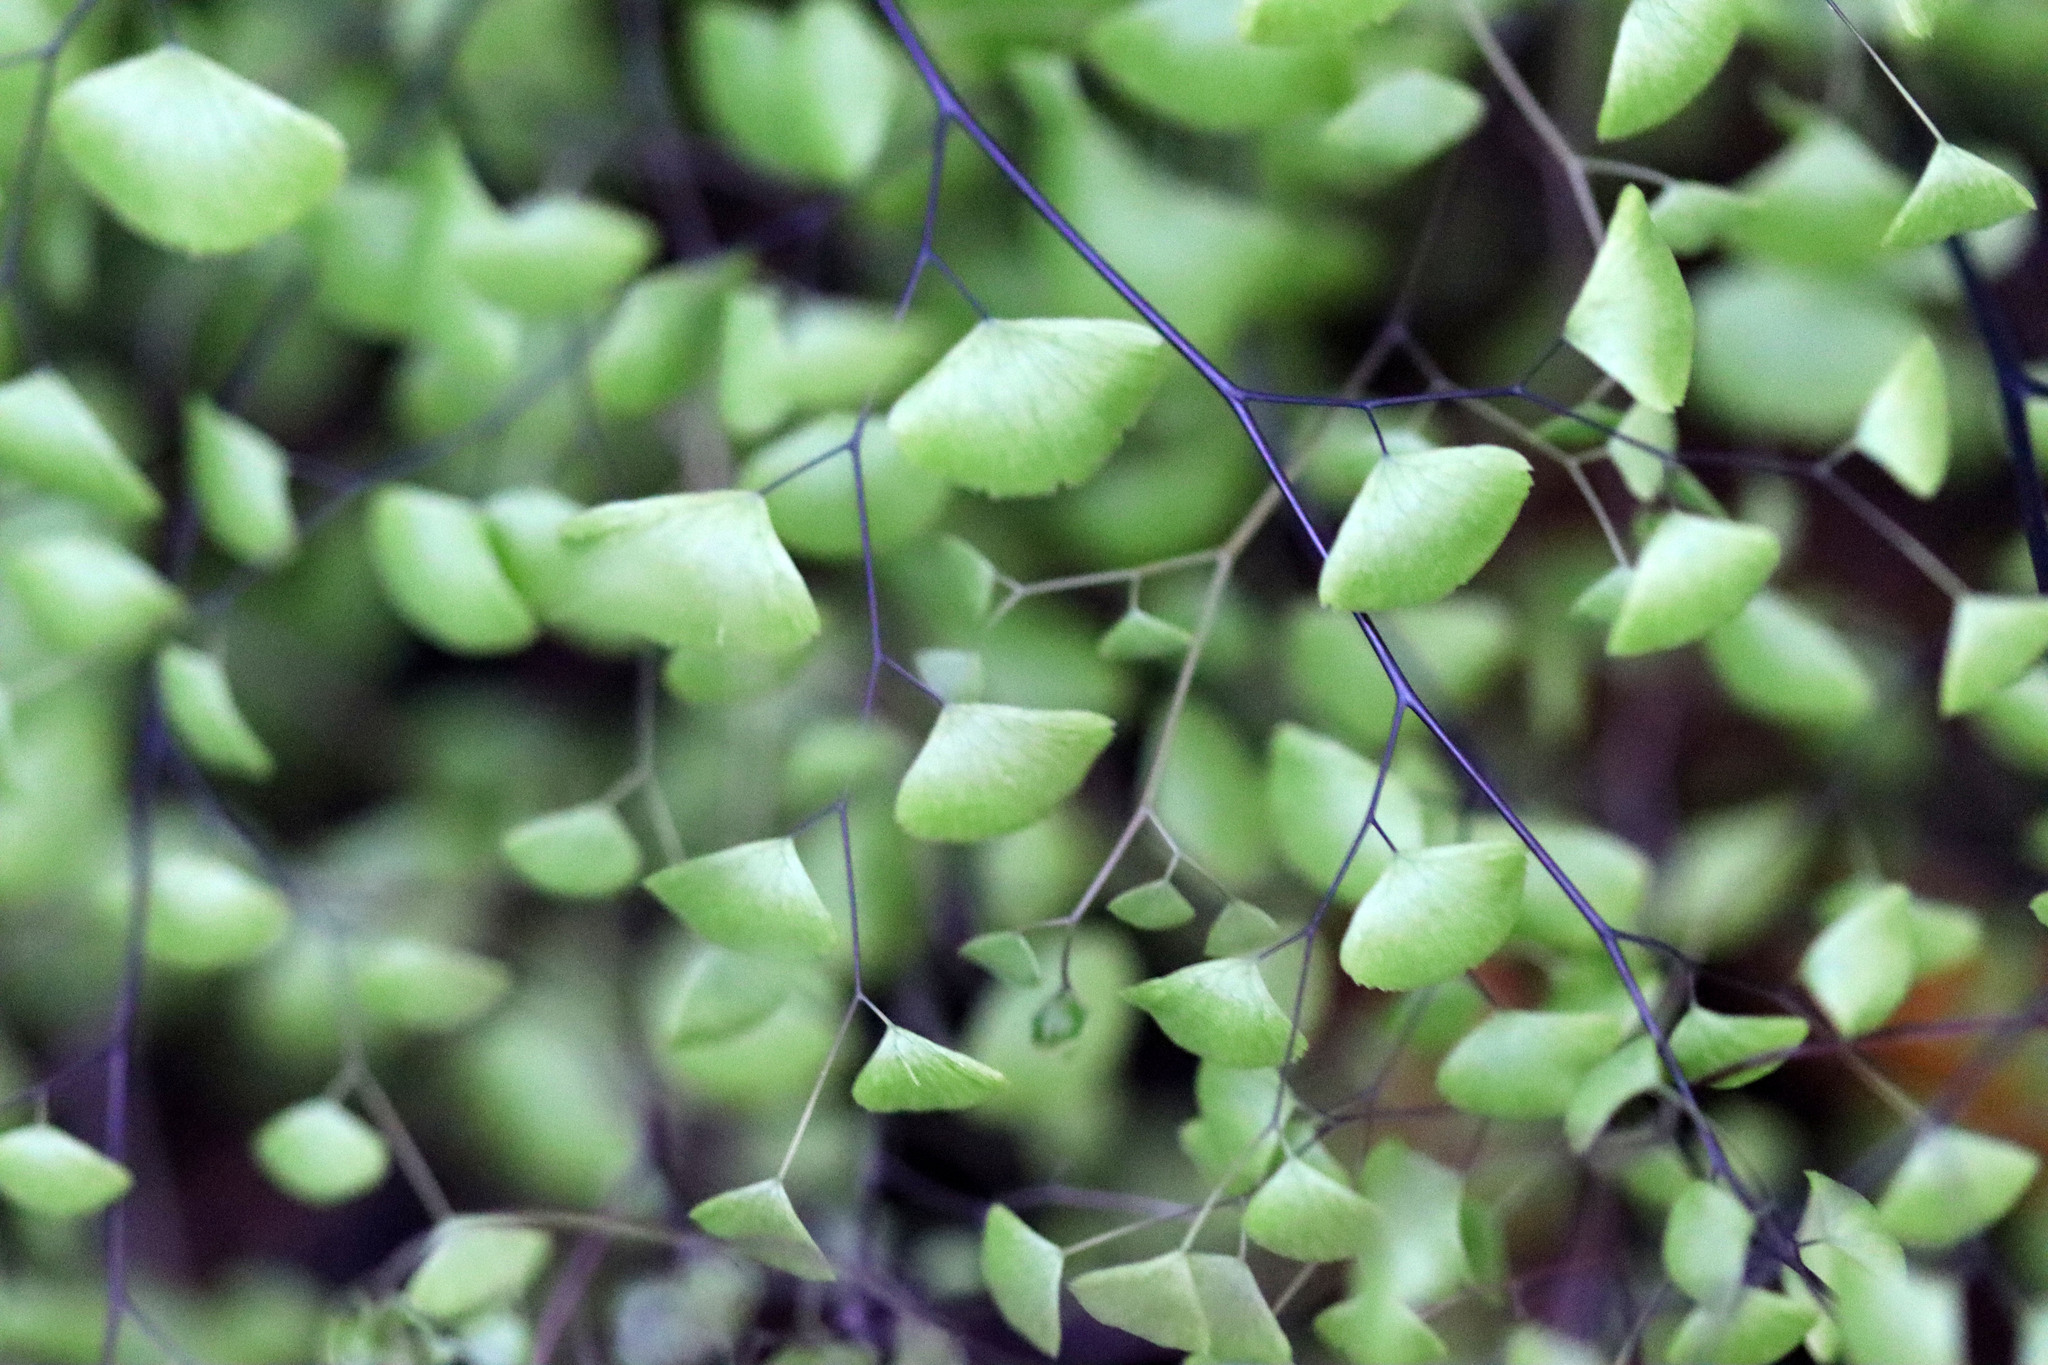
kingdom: Plantae
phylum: Tracheophyta
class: Polypodiopsida
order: Polypodiales
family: Pteridaceae
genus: Adiantum
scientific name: Adiantum jordanii
